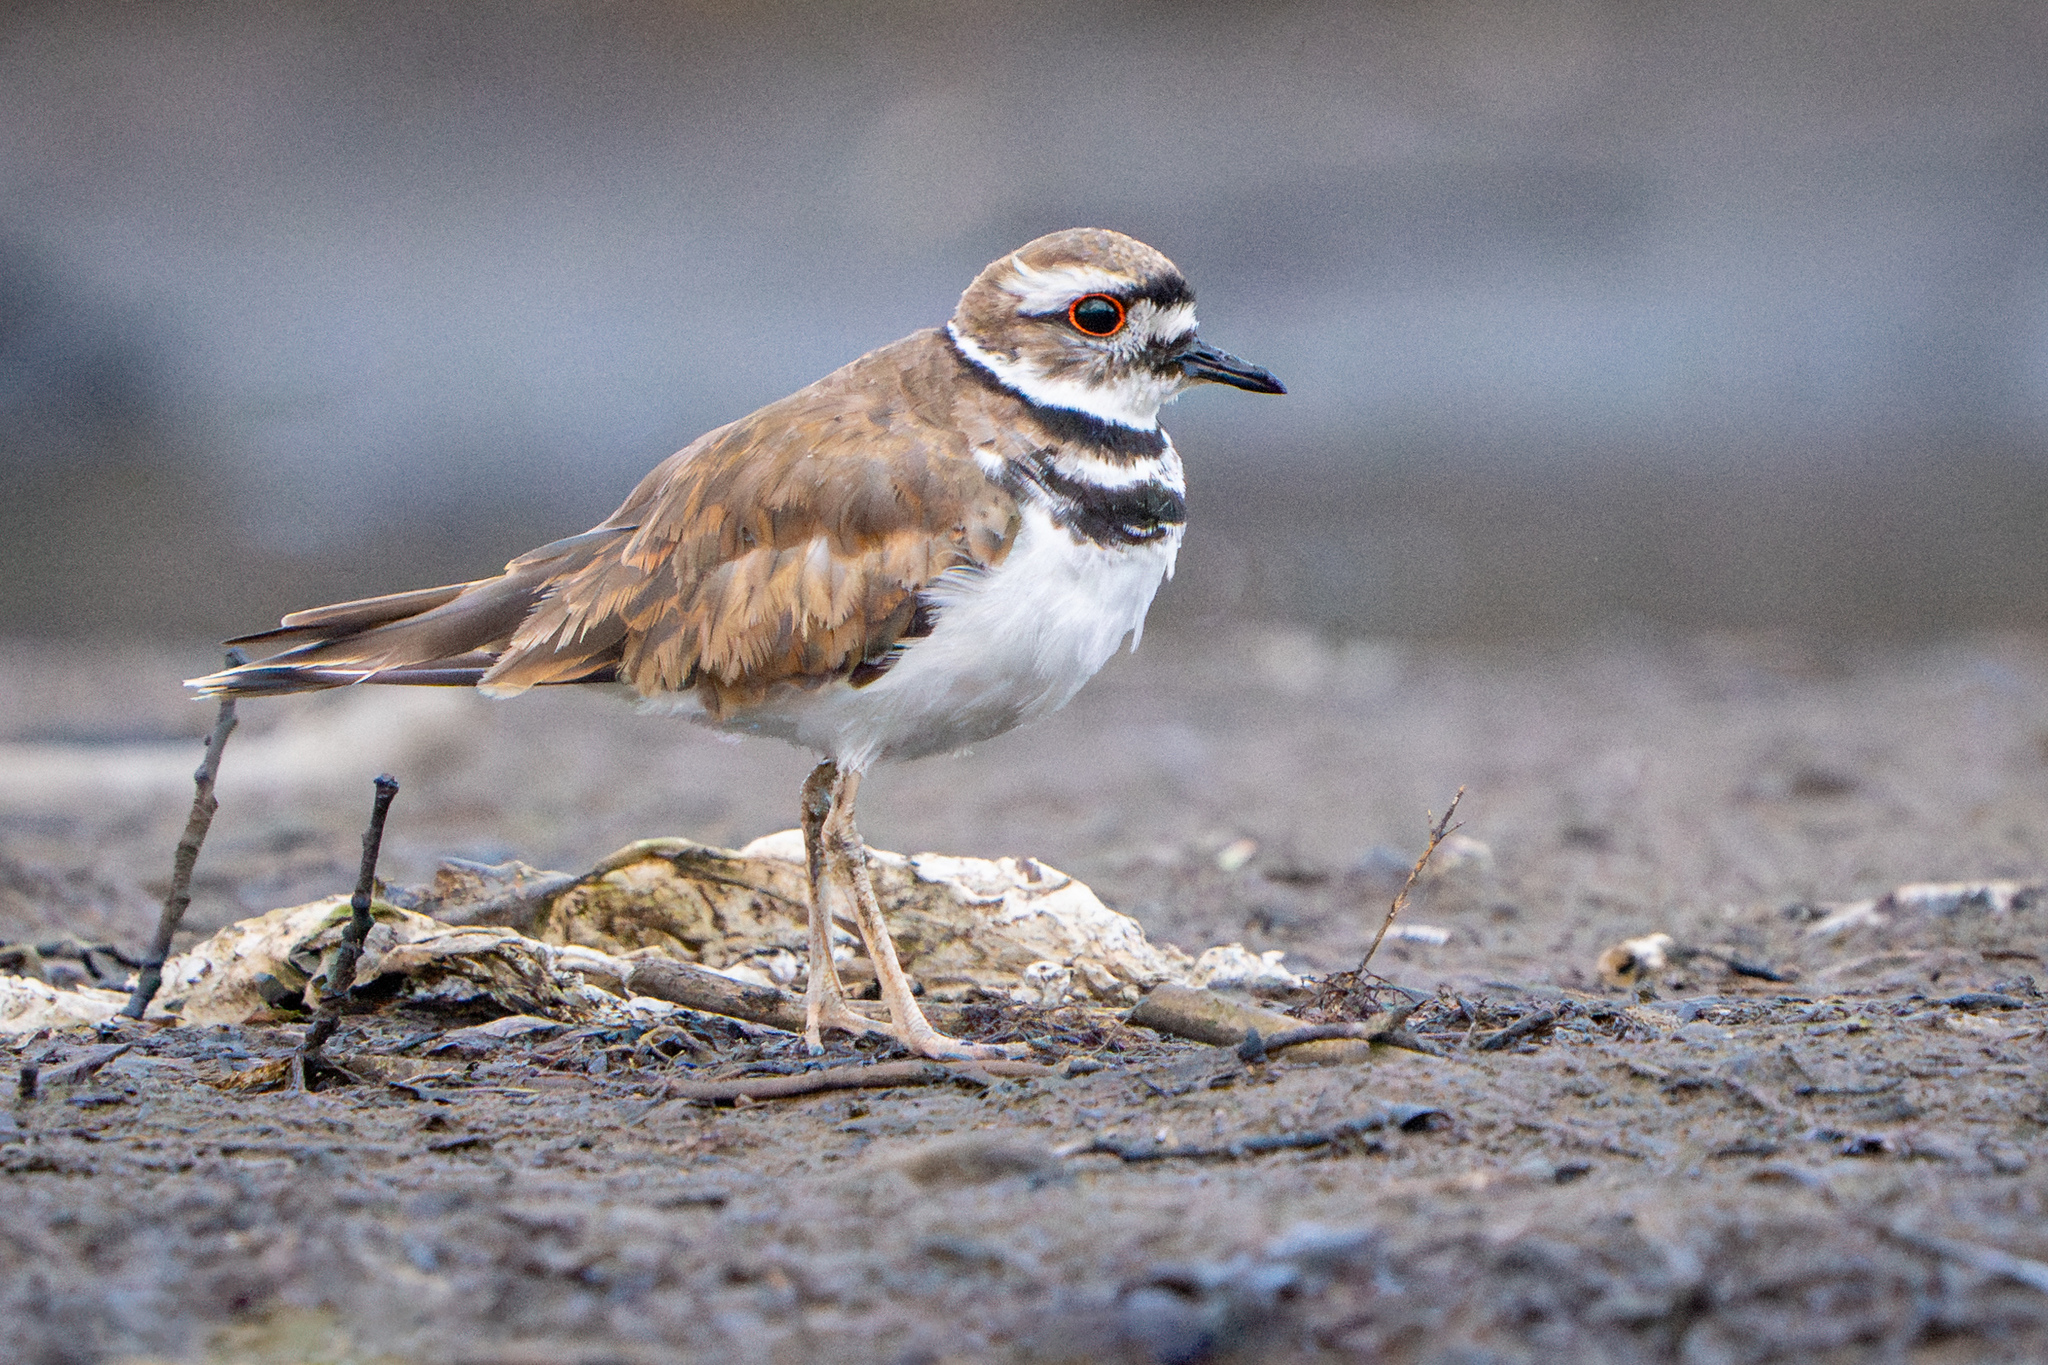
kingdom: Animalia
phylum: Chordata
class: Aves
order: Charadriiformes
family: Charadriidae
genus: Charadrius
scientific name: Charadrius vociferus
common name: Killdeer
